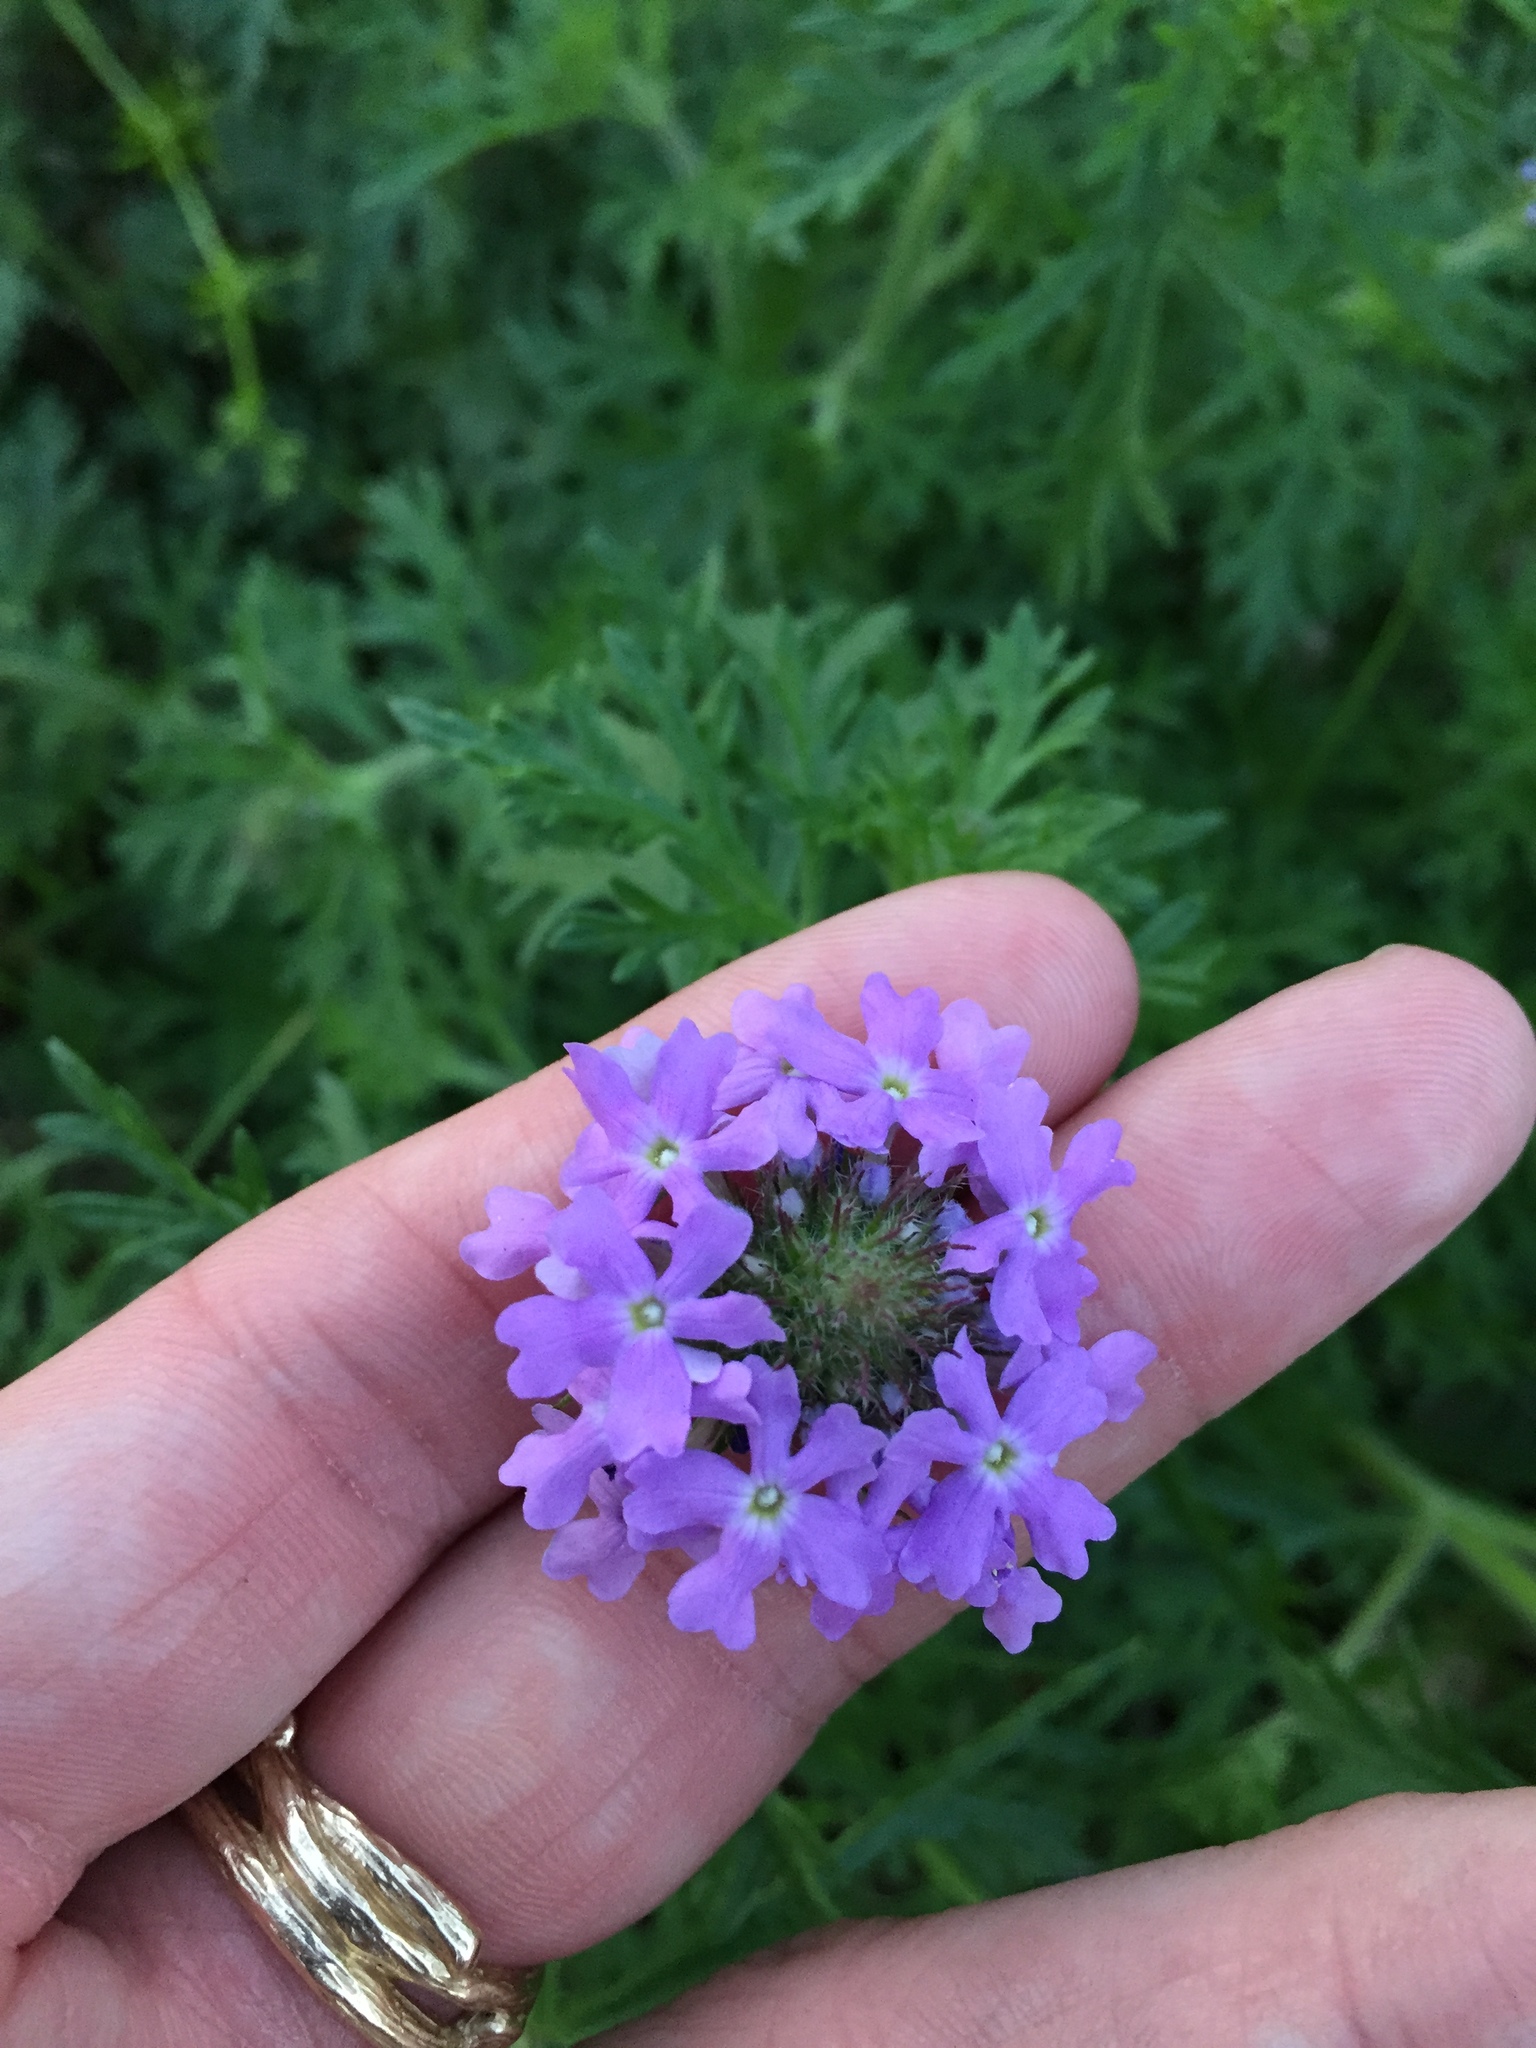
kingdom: Plantae
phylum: Tracheophyta
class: Magnoliopsida
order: Lamiales
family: Verbenaceae
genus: Verbena
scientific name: Verbena bipinnatifida
